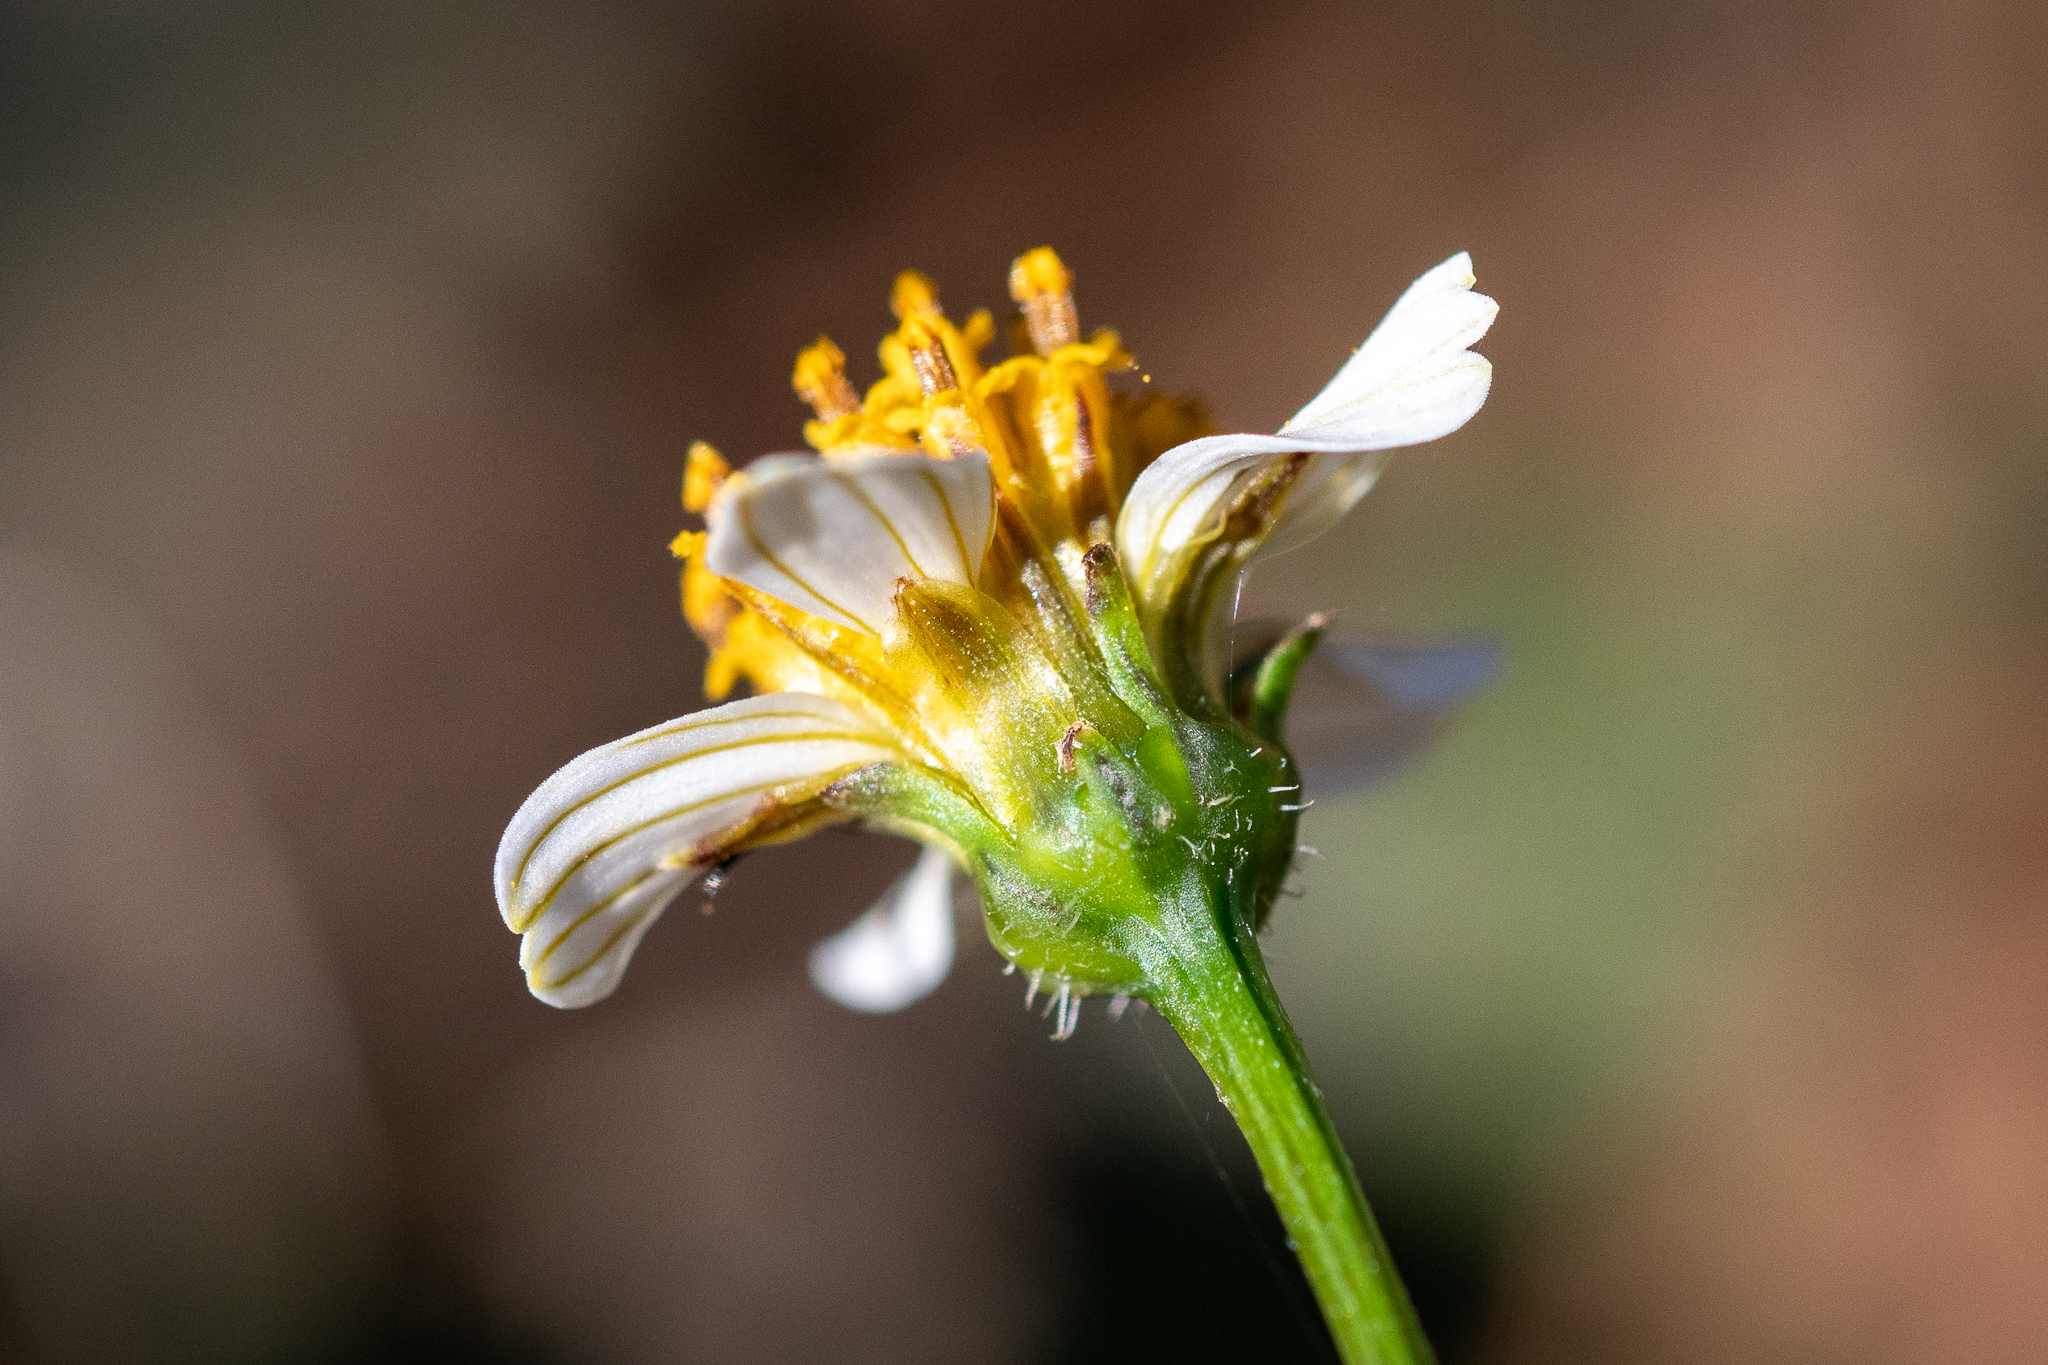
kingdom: Plantae
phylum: Tracheophyta
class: Magnoliopsida
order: Asterales
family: Asteraceae
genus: Bidens
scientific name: Bidens pilosa
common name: Black-jack
